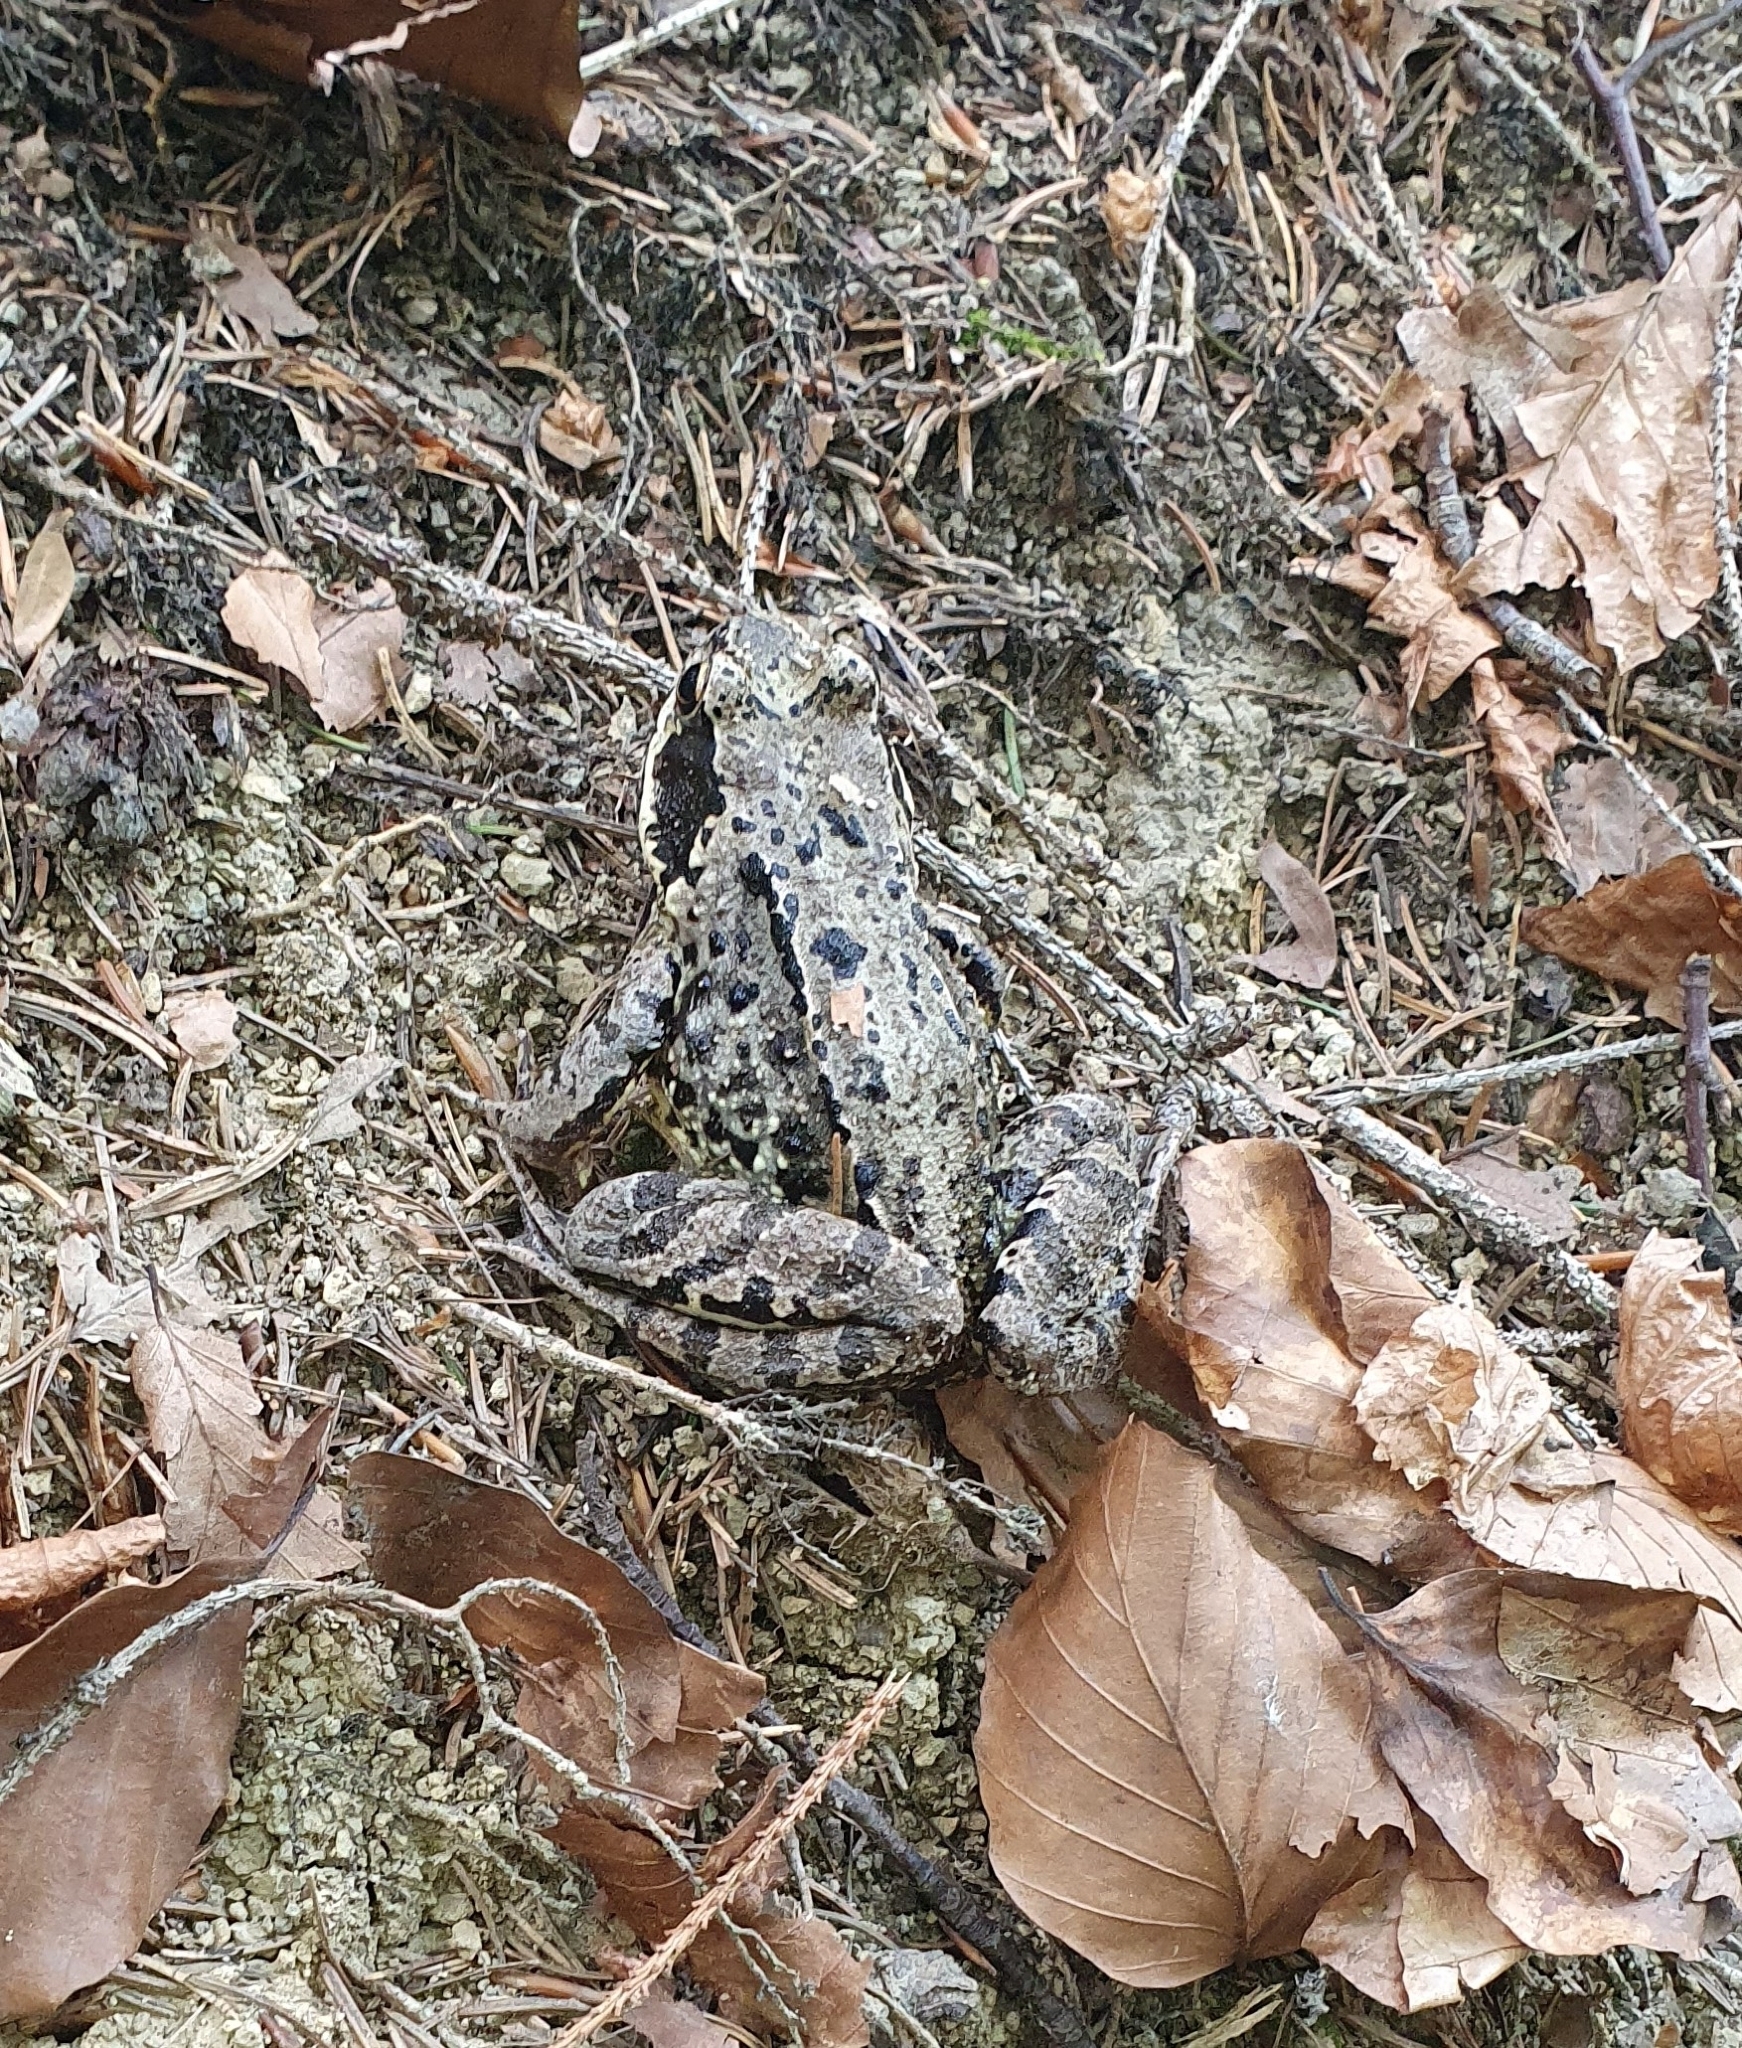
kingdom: Animalia
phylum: Chordata
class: Amphibia
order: Anura
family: Ranidae
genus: Rana
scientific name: Rana temporaria
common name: Common frog
